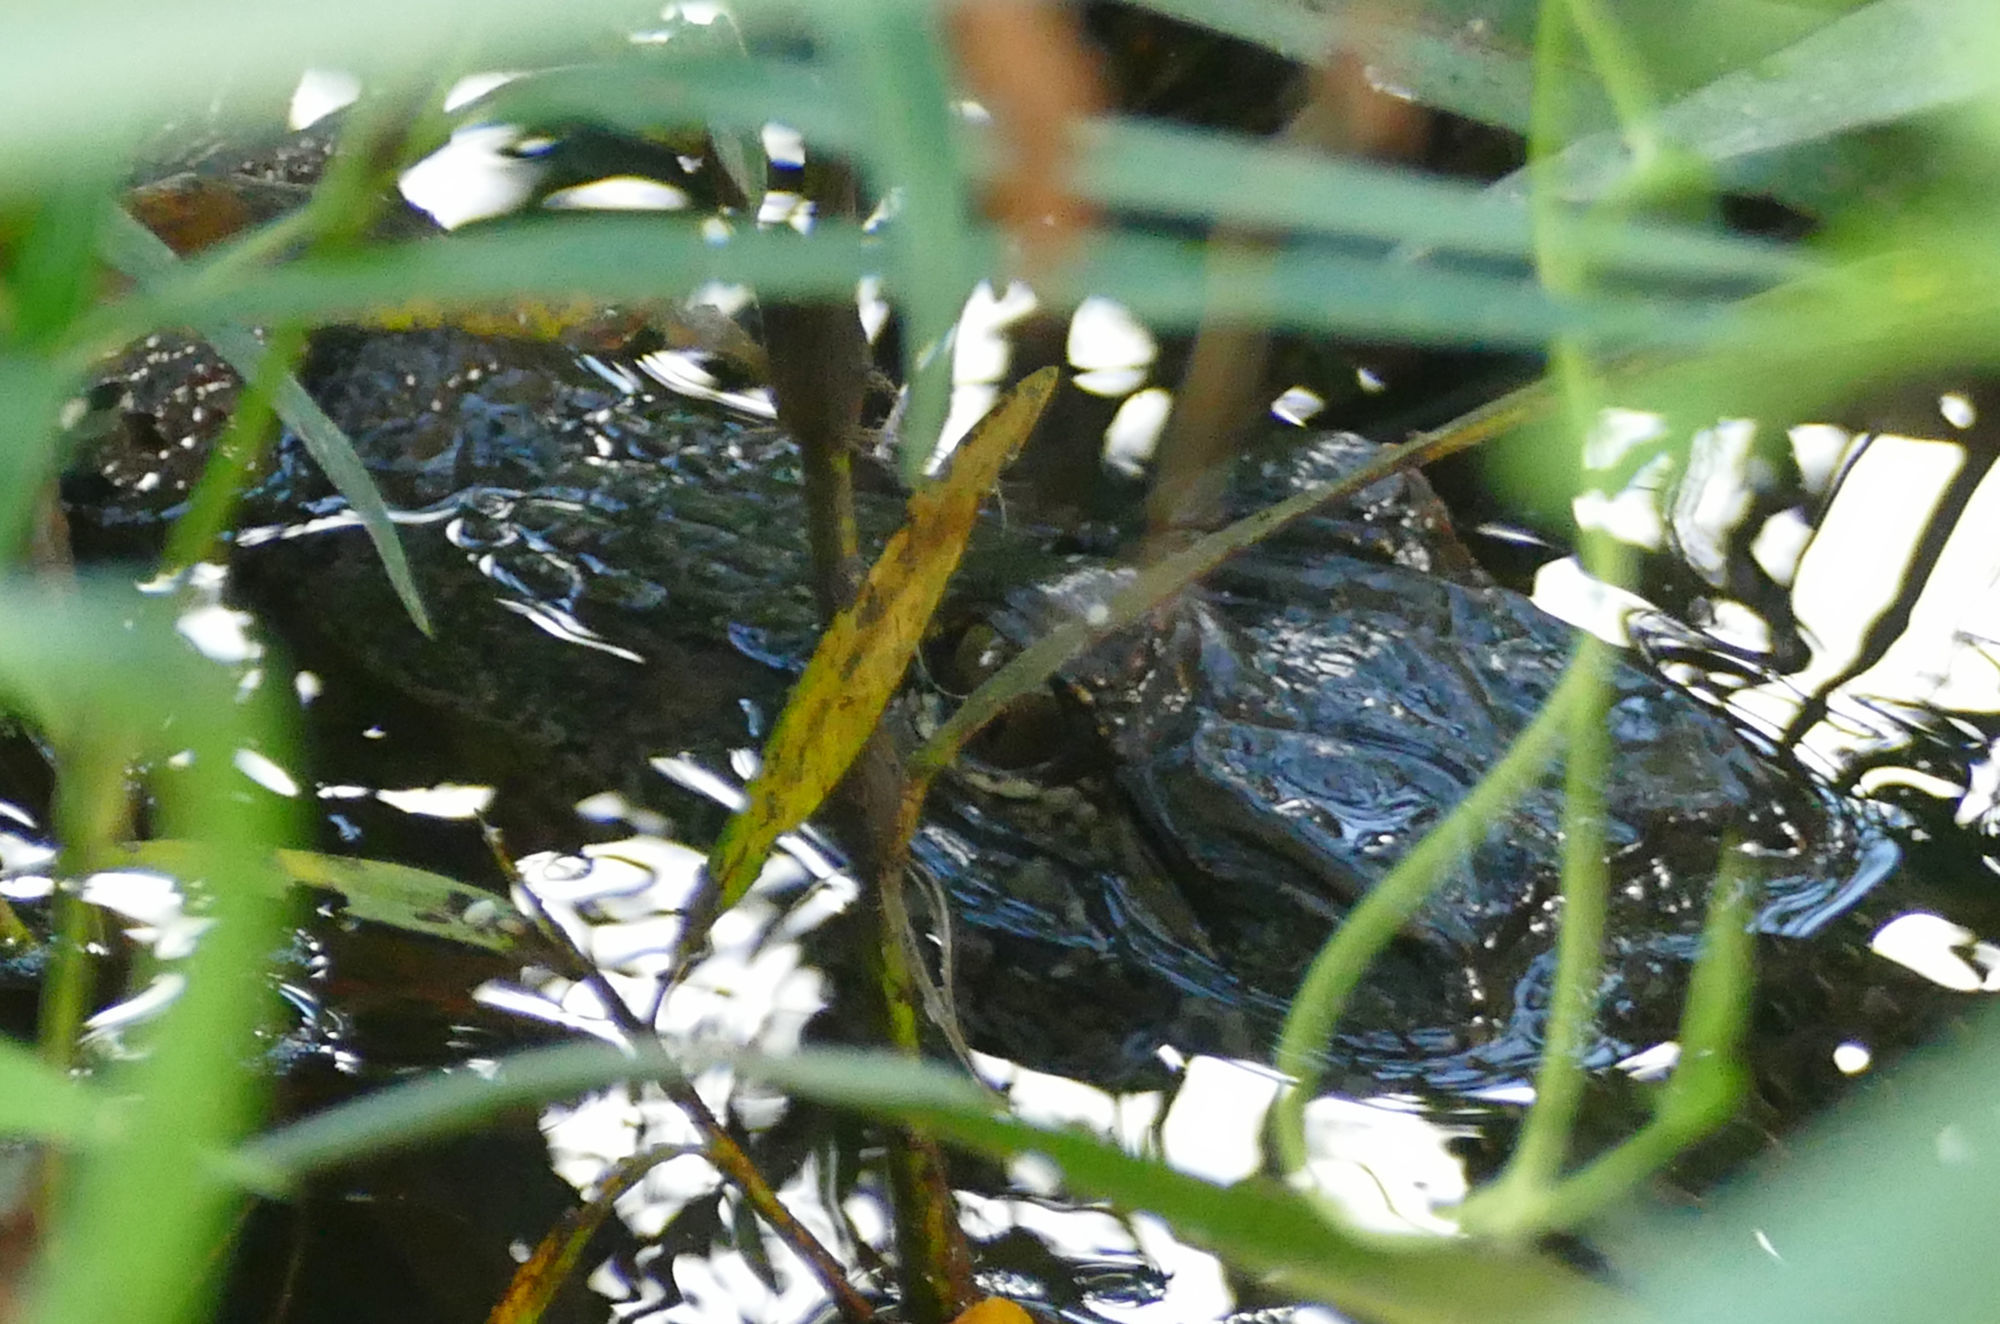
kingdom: Animalia
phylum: Chordata
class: Crocodylia
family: Alligatoridae
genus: Alligator
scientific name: Alligator mississippiensis
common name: American alligator
